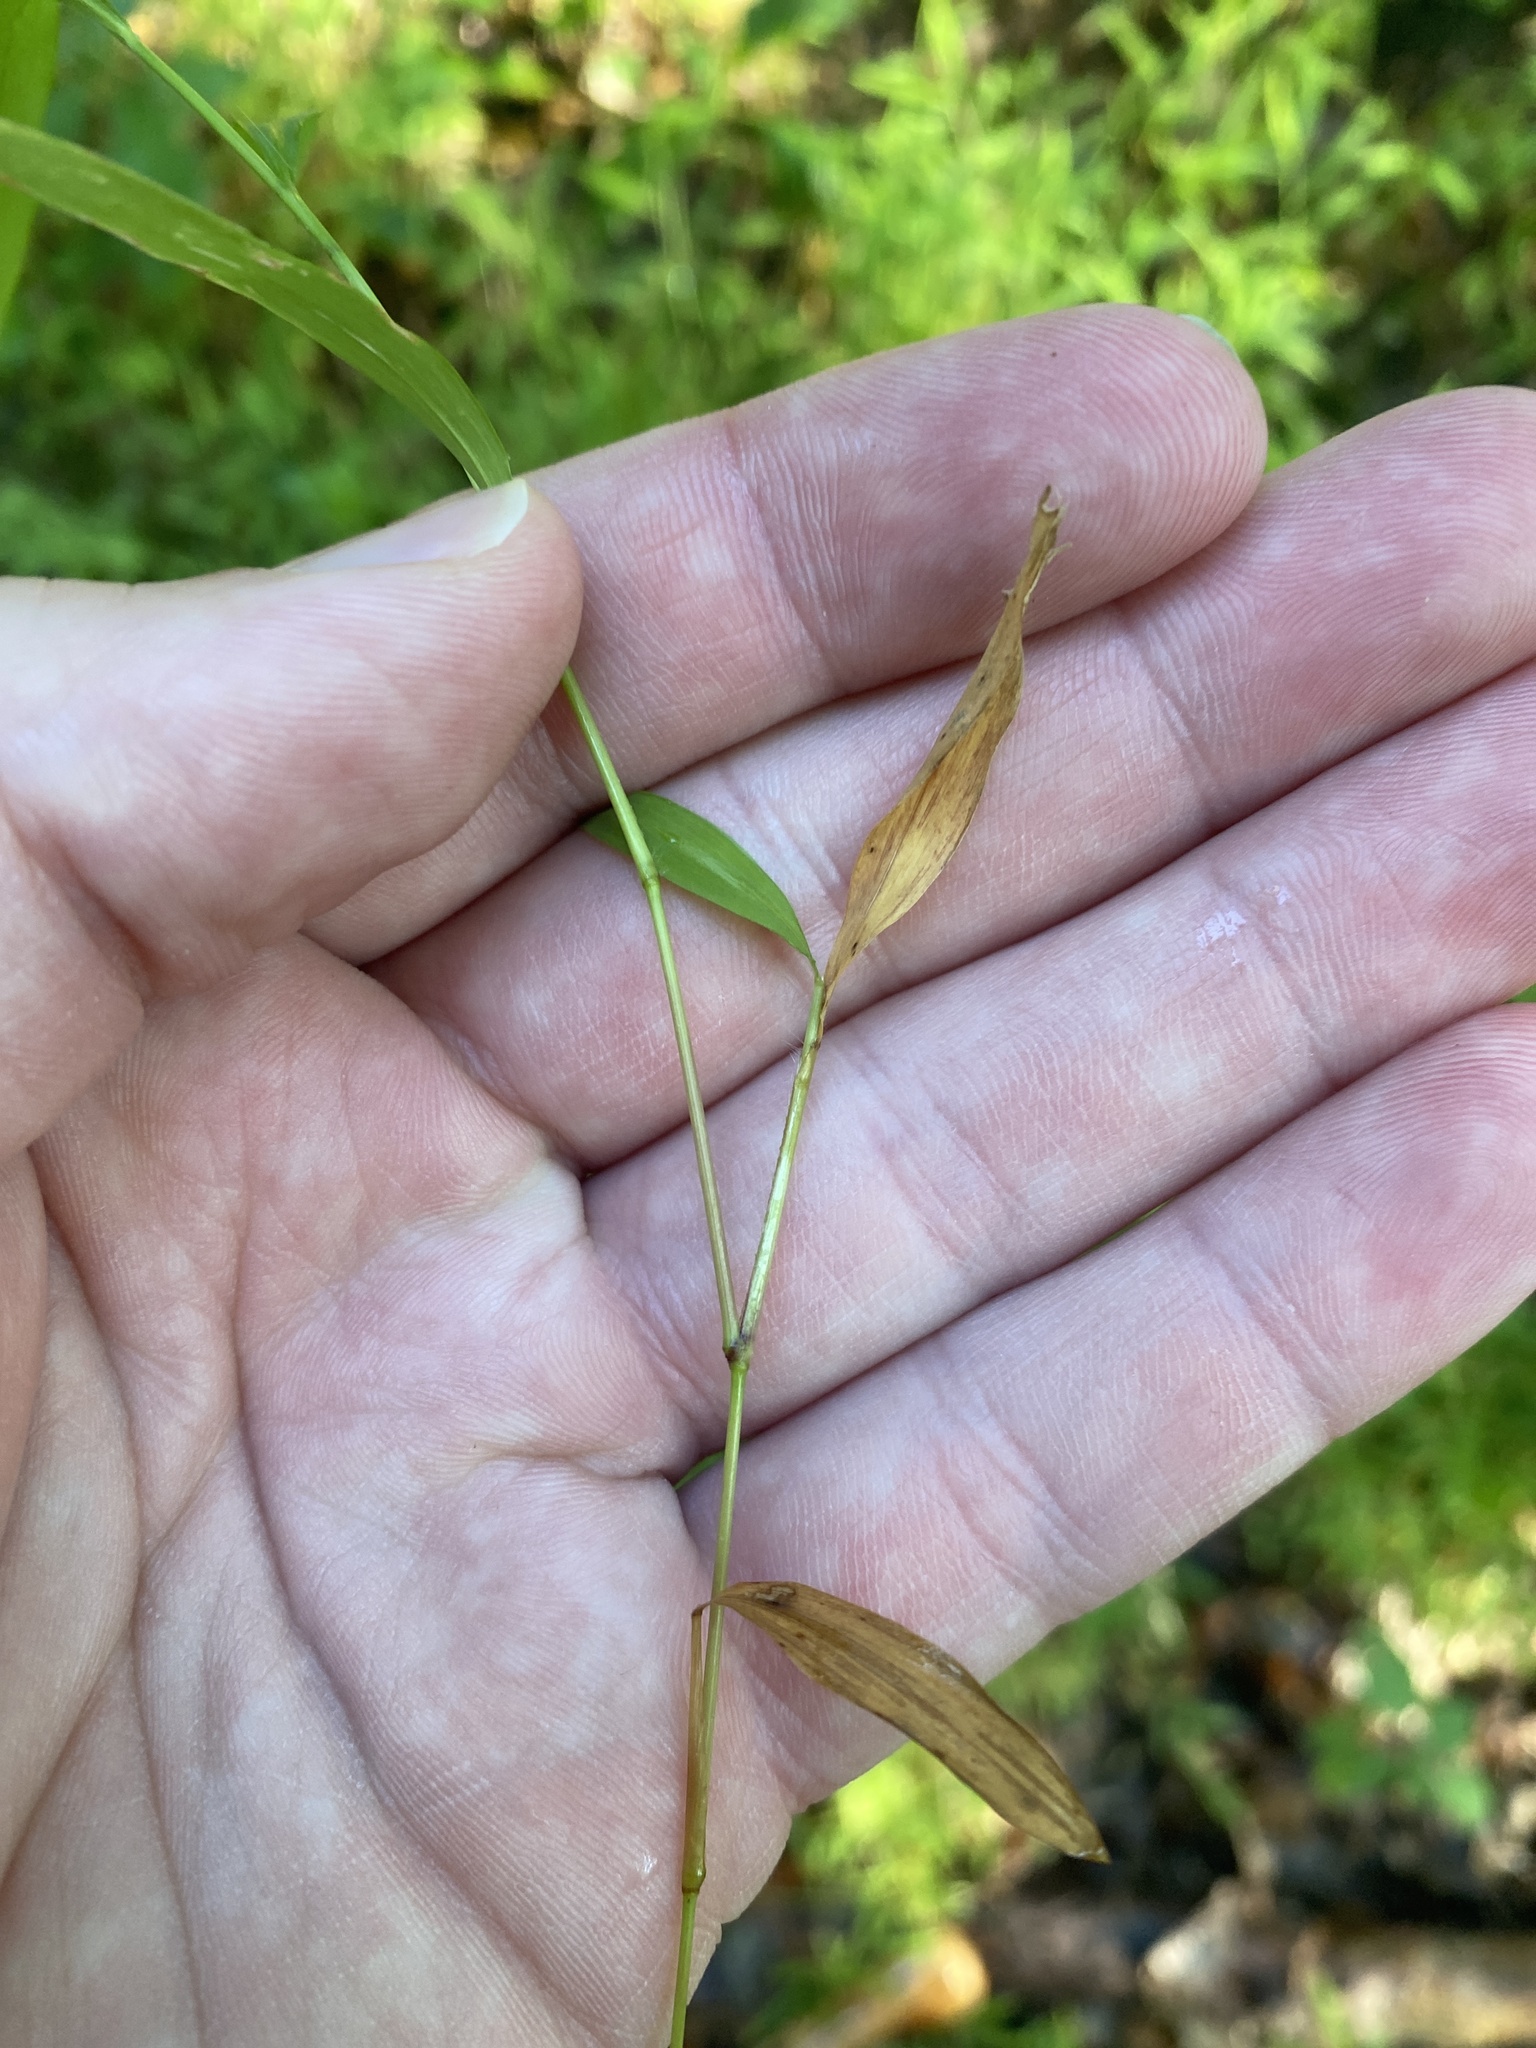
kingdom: Plantae
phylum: Tracheophyta
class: Liliopsida
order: Poales
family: Poaceae
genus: Microstegium
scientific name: Microstegium vimineum
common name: Japanese stiltgrass
